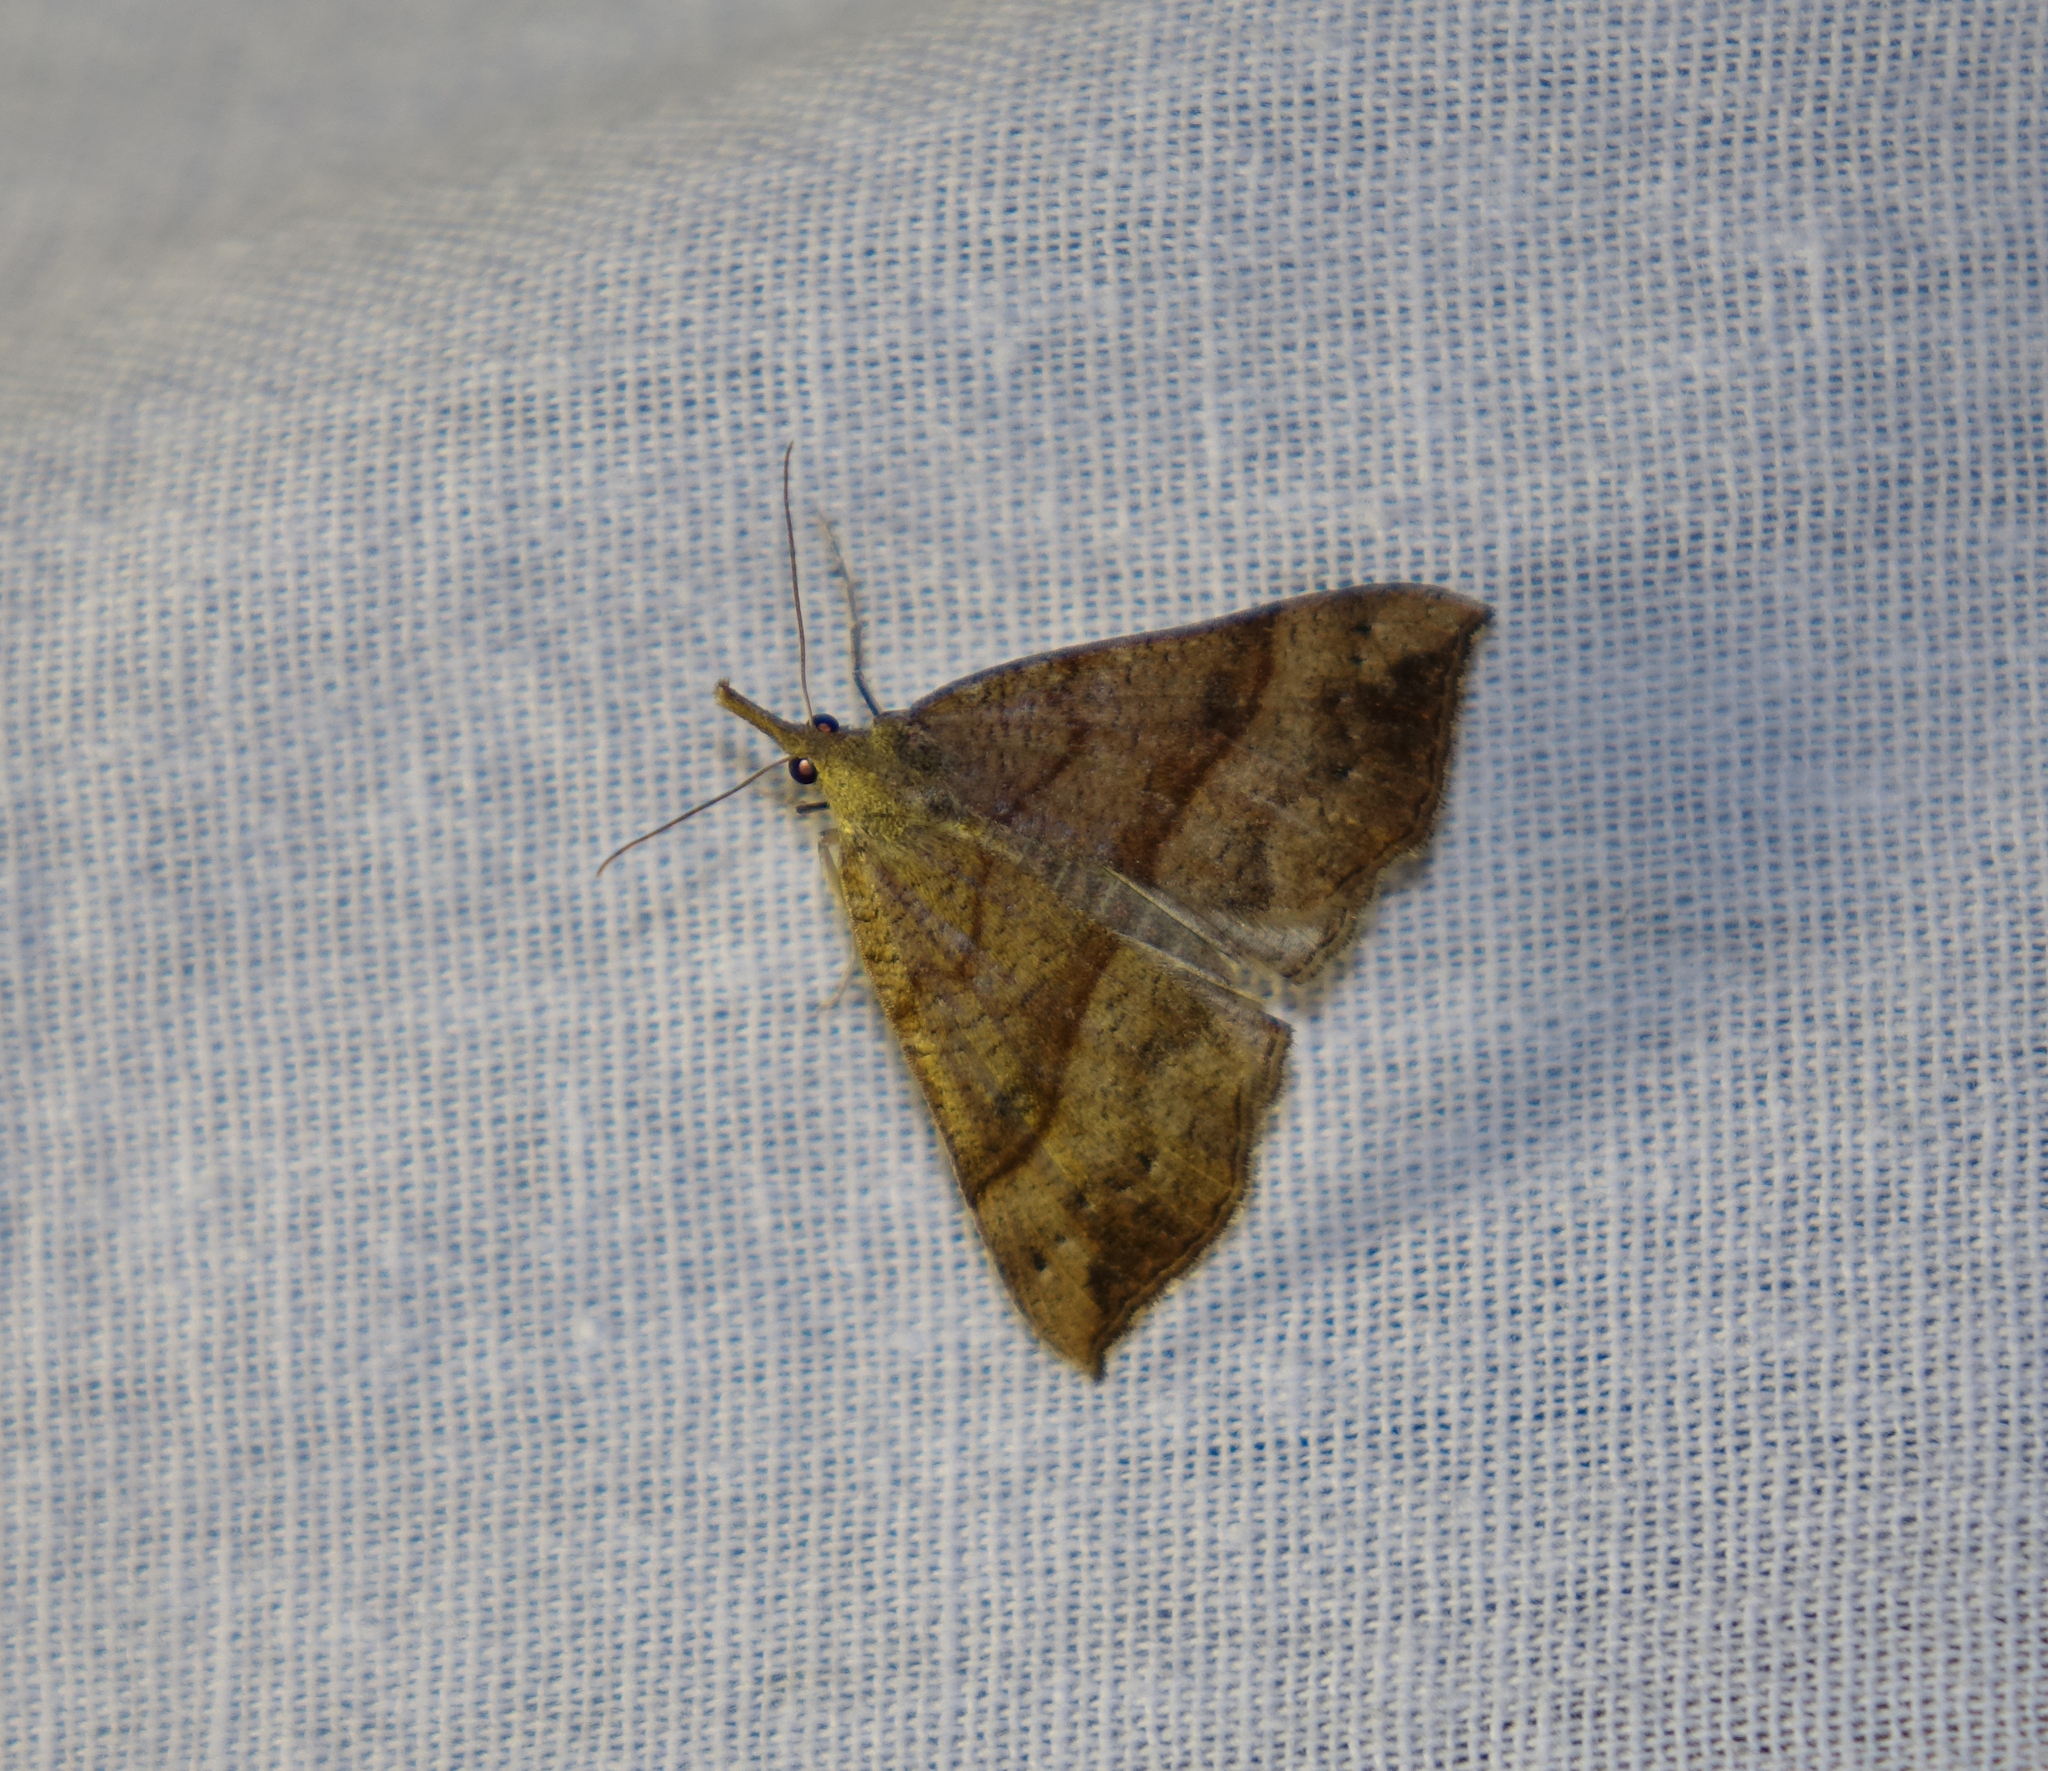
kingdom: Animalia
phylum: Arthropoda
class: Insecta
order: Lepidoptera
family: Erebidae
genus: Hypena
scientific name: Hypena proboscidalis
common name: Snout
